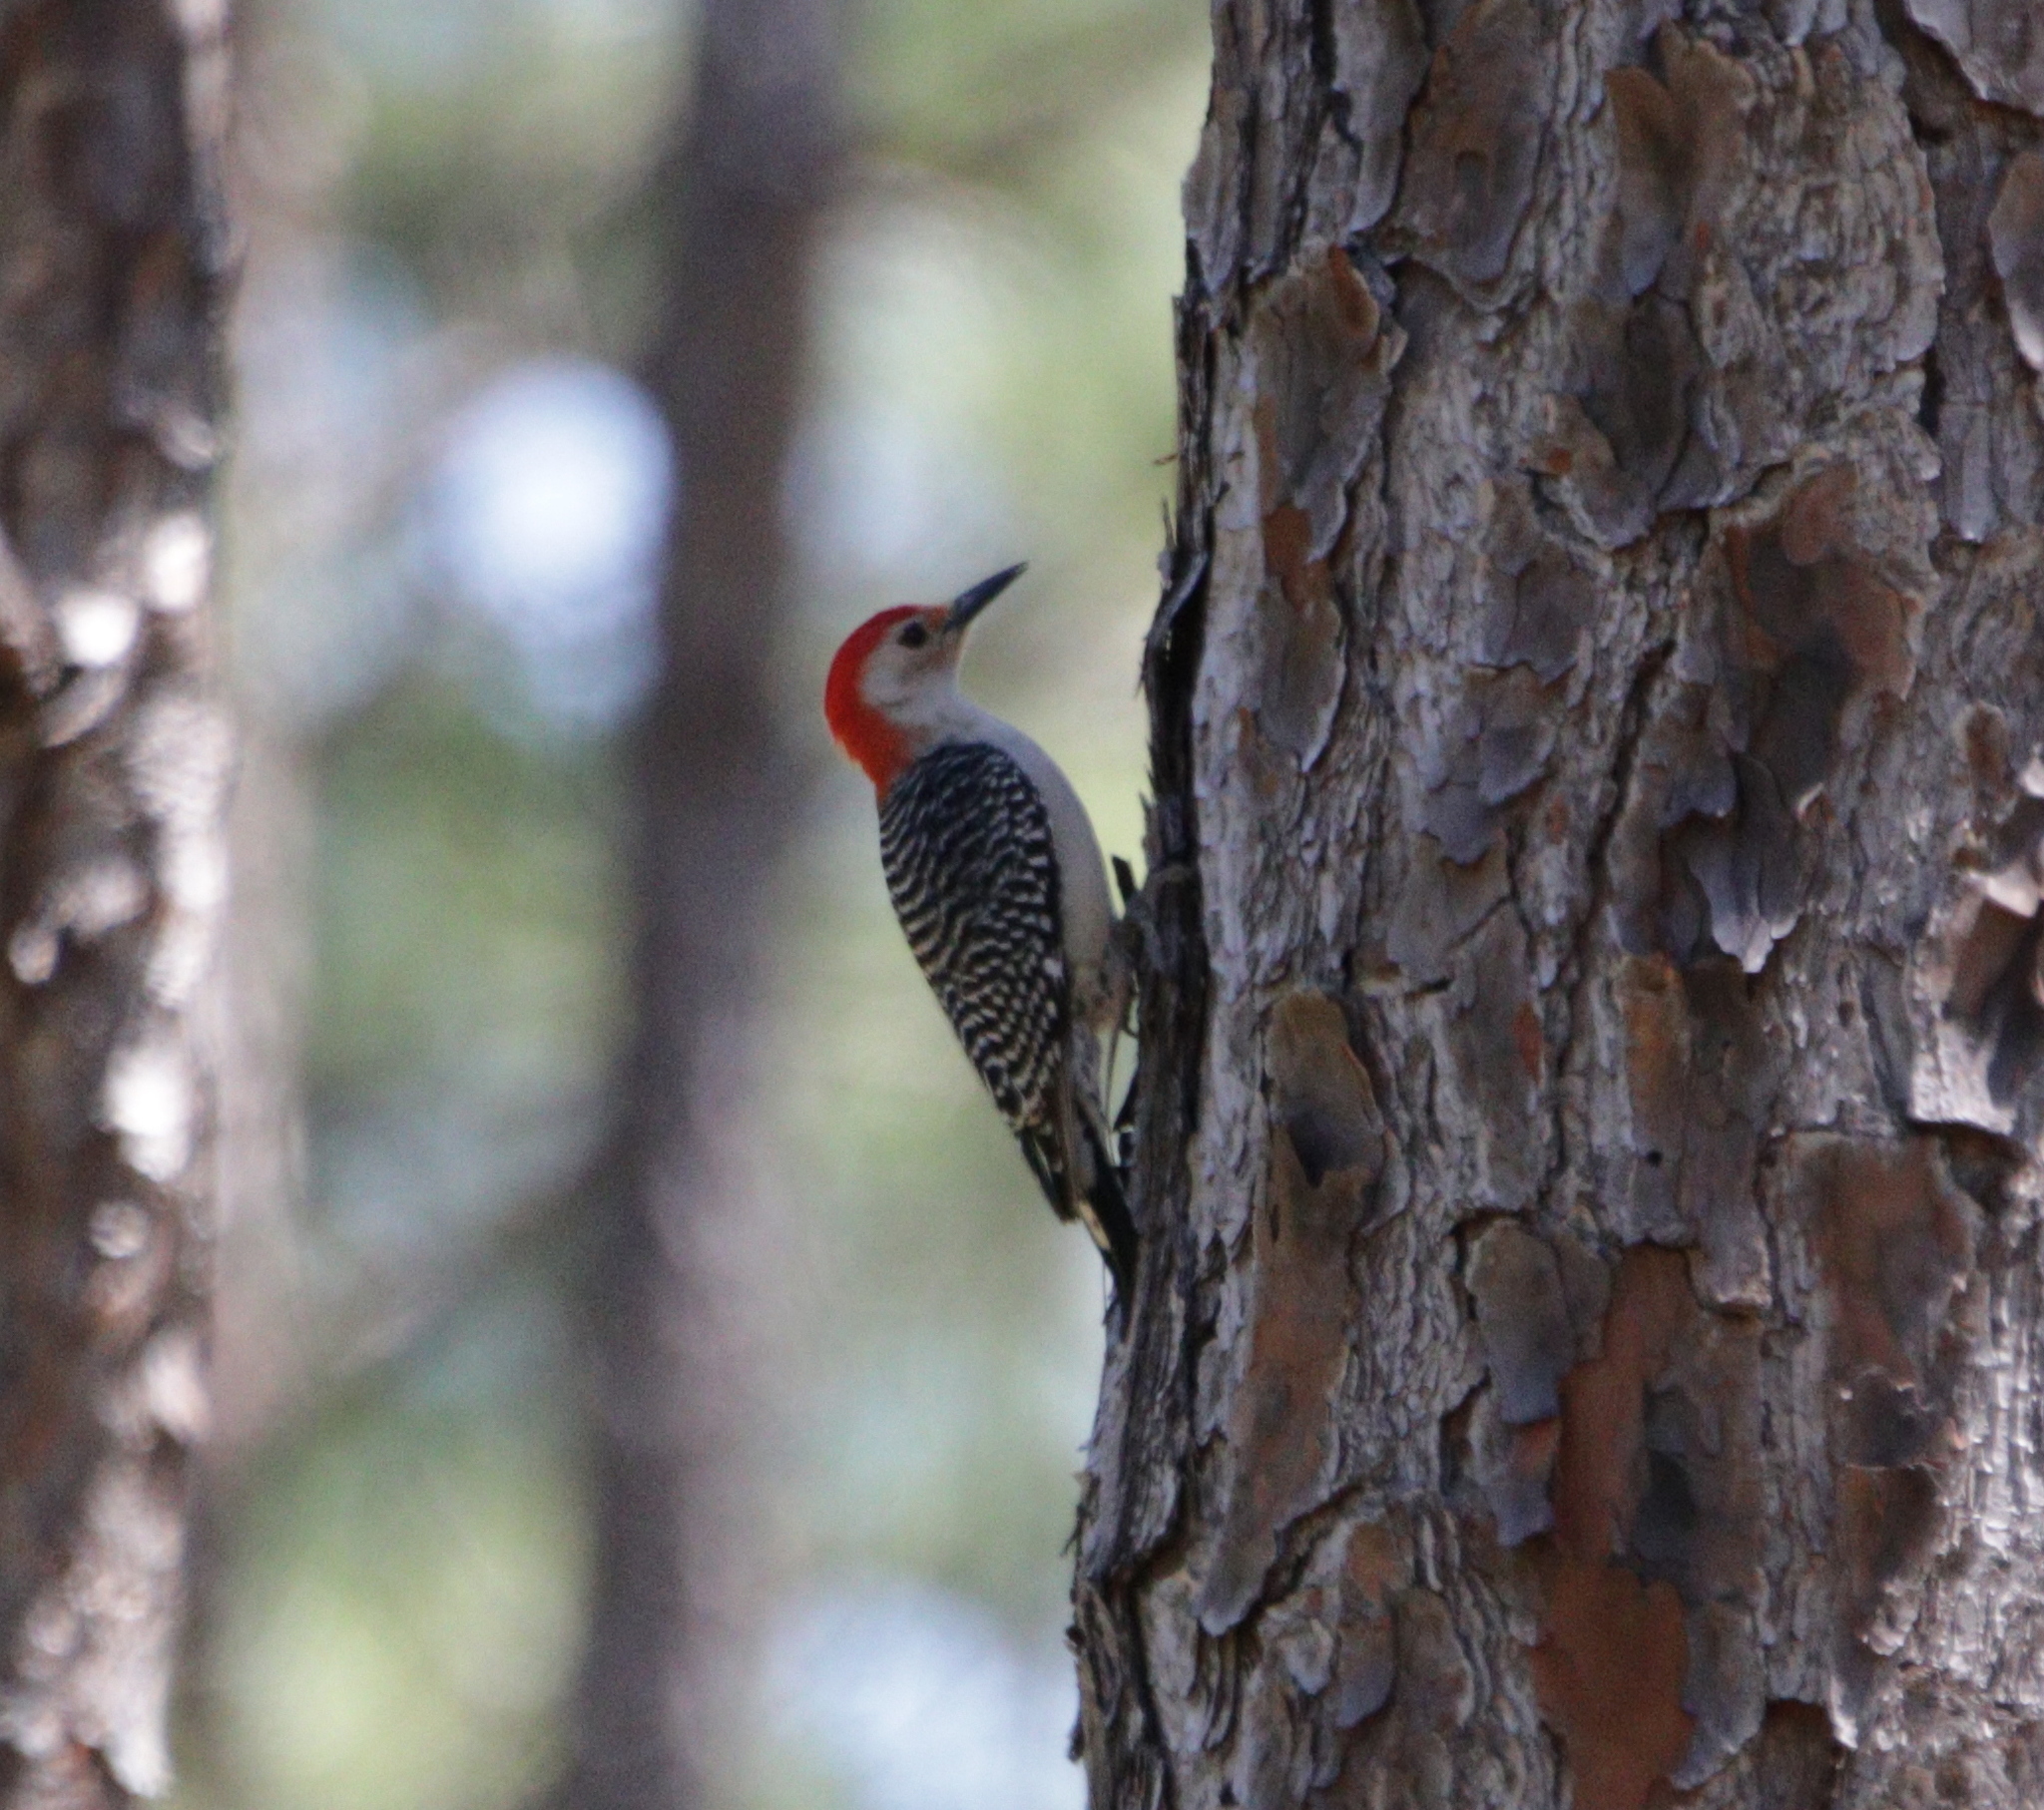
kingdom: Animalia
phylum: Chordata
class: Aves
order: Piciformes
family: Picidae
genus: Melanerpes
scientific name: Melanerpes carolinus
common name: Red-bellied woodpecker
